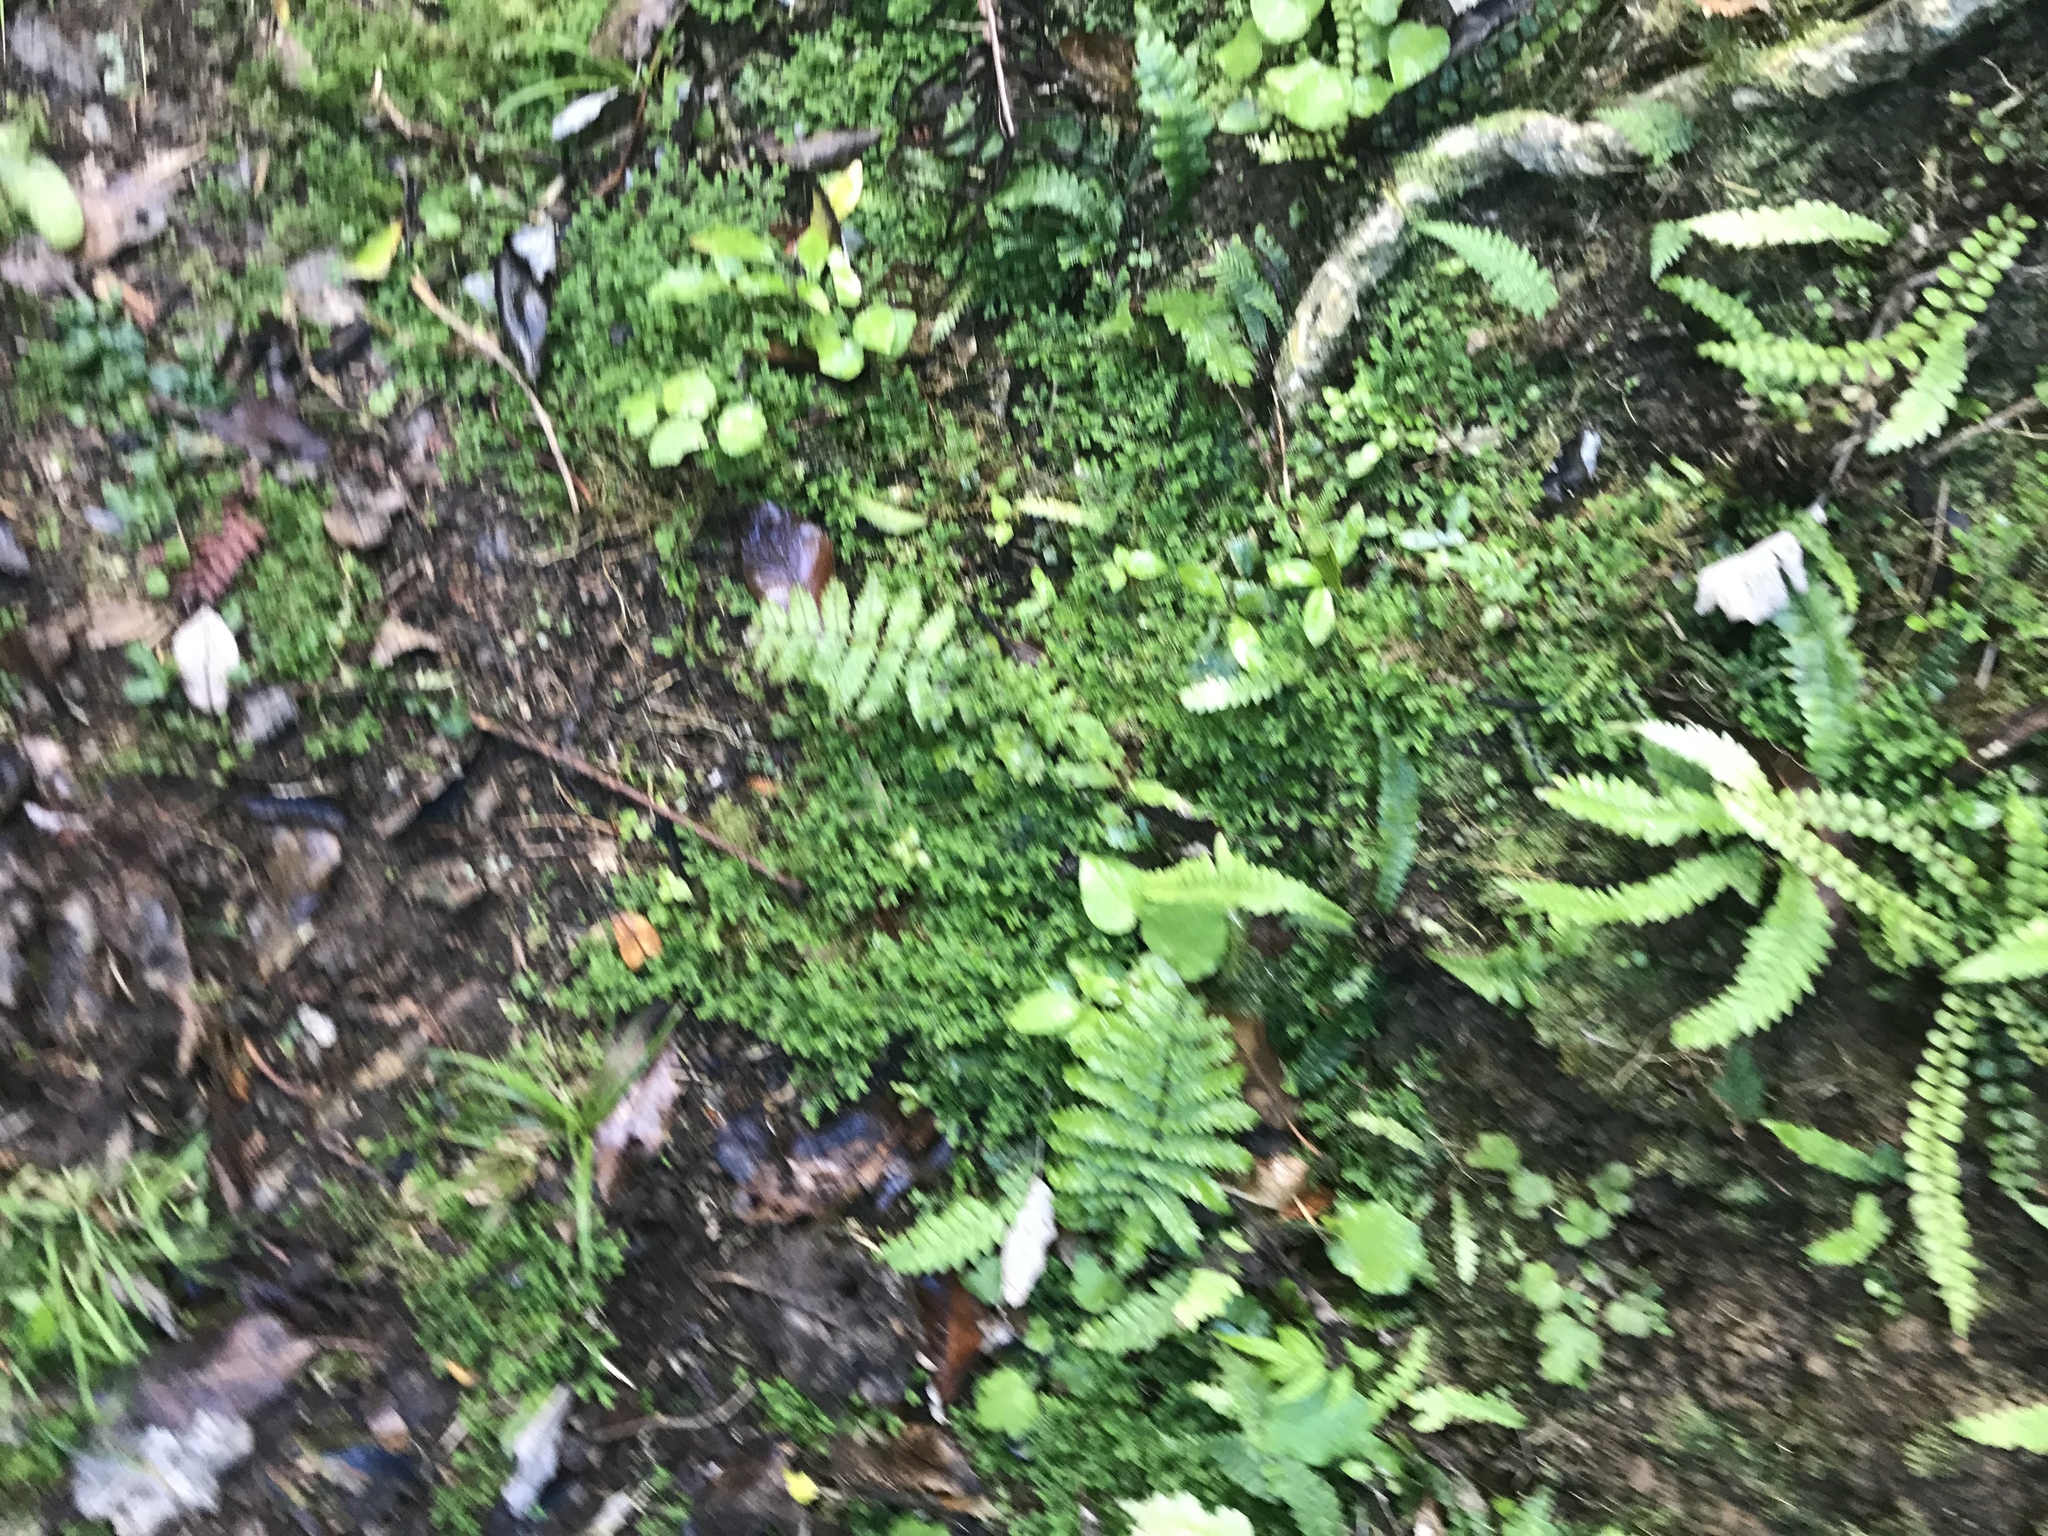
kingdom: Plantae
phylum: Tracheophyta
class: Lycopodiopsida
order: Selaginellales
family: Selaginellaceae
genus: Selaginella
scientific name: Selaginella kraussiana
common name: Krauss' spikemoss
